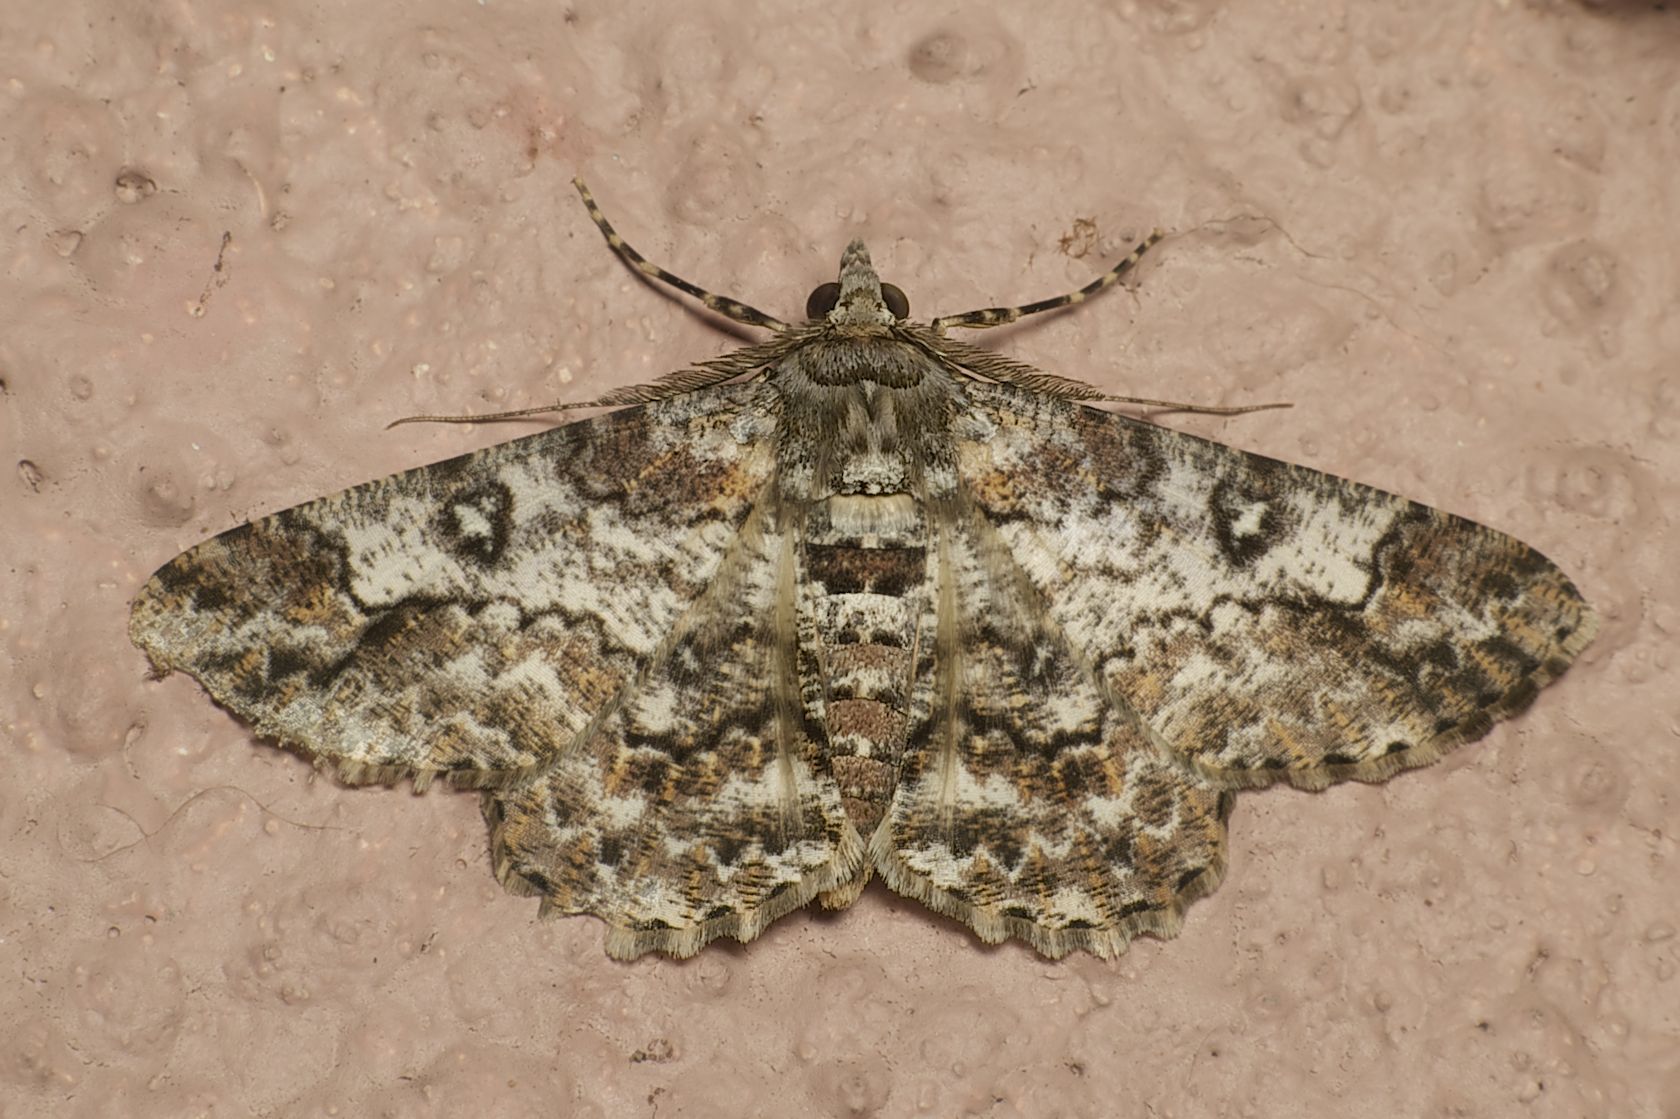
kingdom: Animalia
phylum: Arthropoda
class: Insecta
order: Lepidoptera
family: Geometridae
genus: Cleora
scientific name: Cleora alienaria
